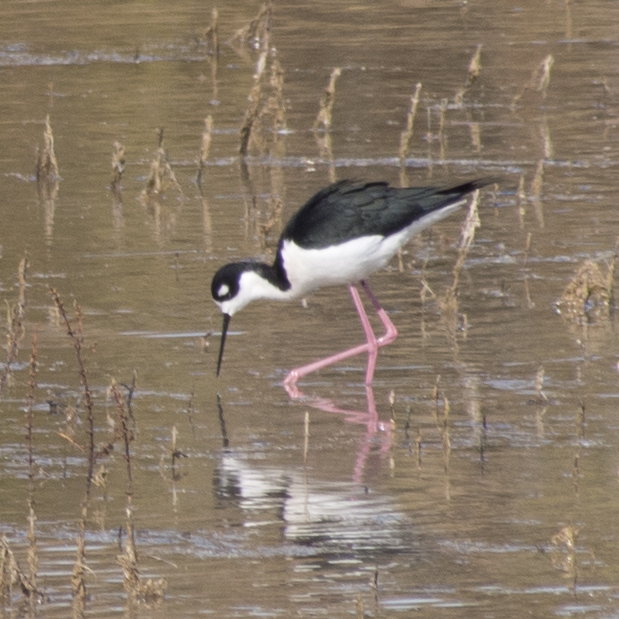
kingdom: Animalia
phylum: Chordata
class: Aves
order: Charadriiformes
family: Recurvirostridae
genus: Himantopus
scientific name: Himantopus mexicanus
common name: Black-necked stilt
